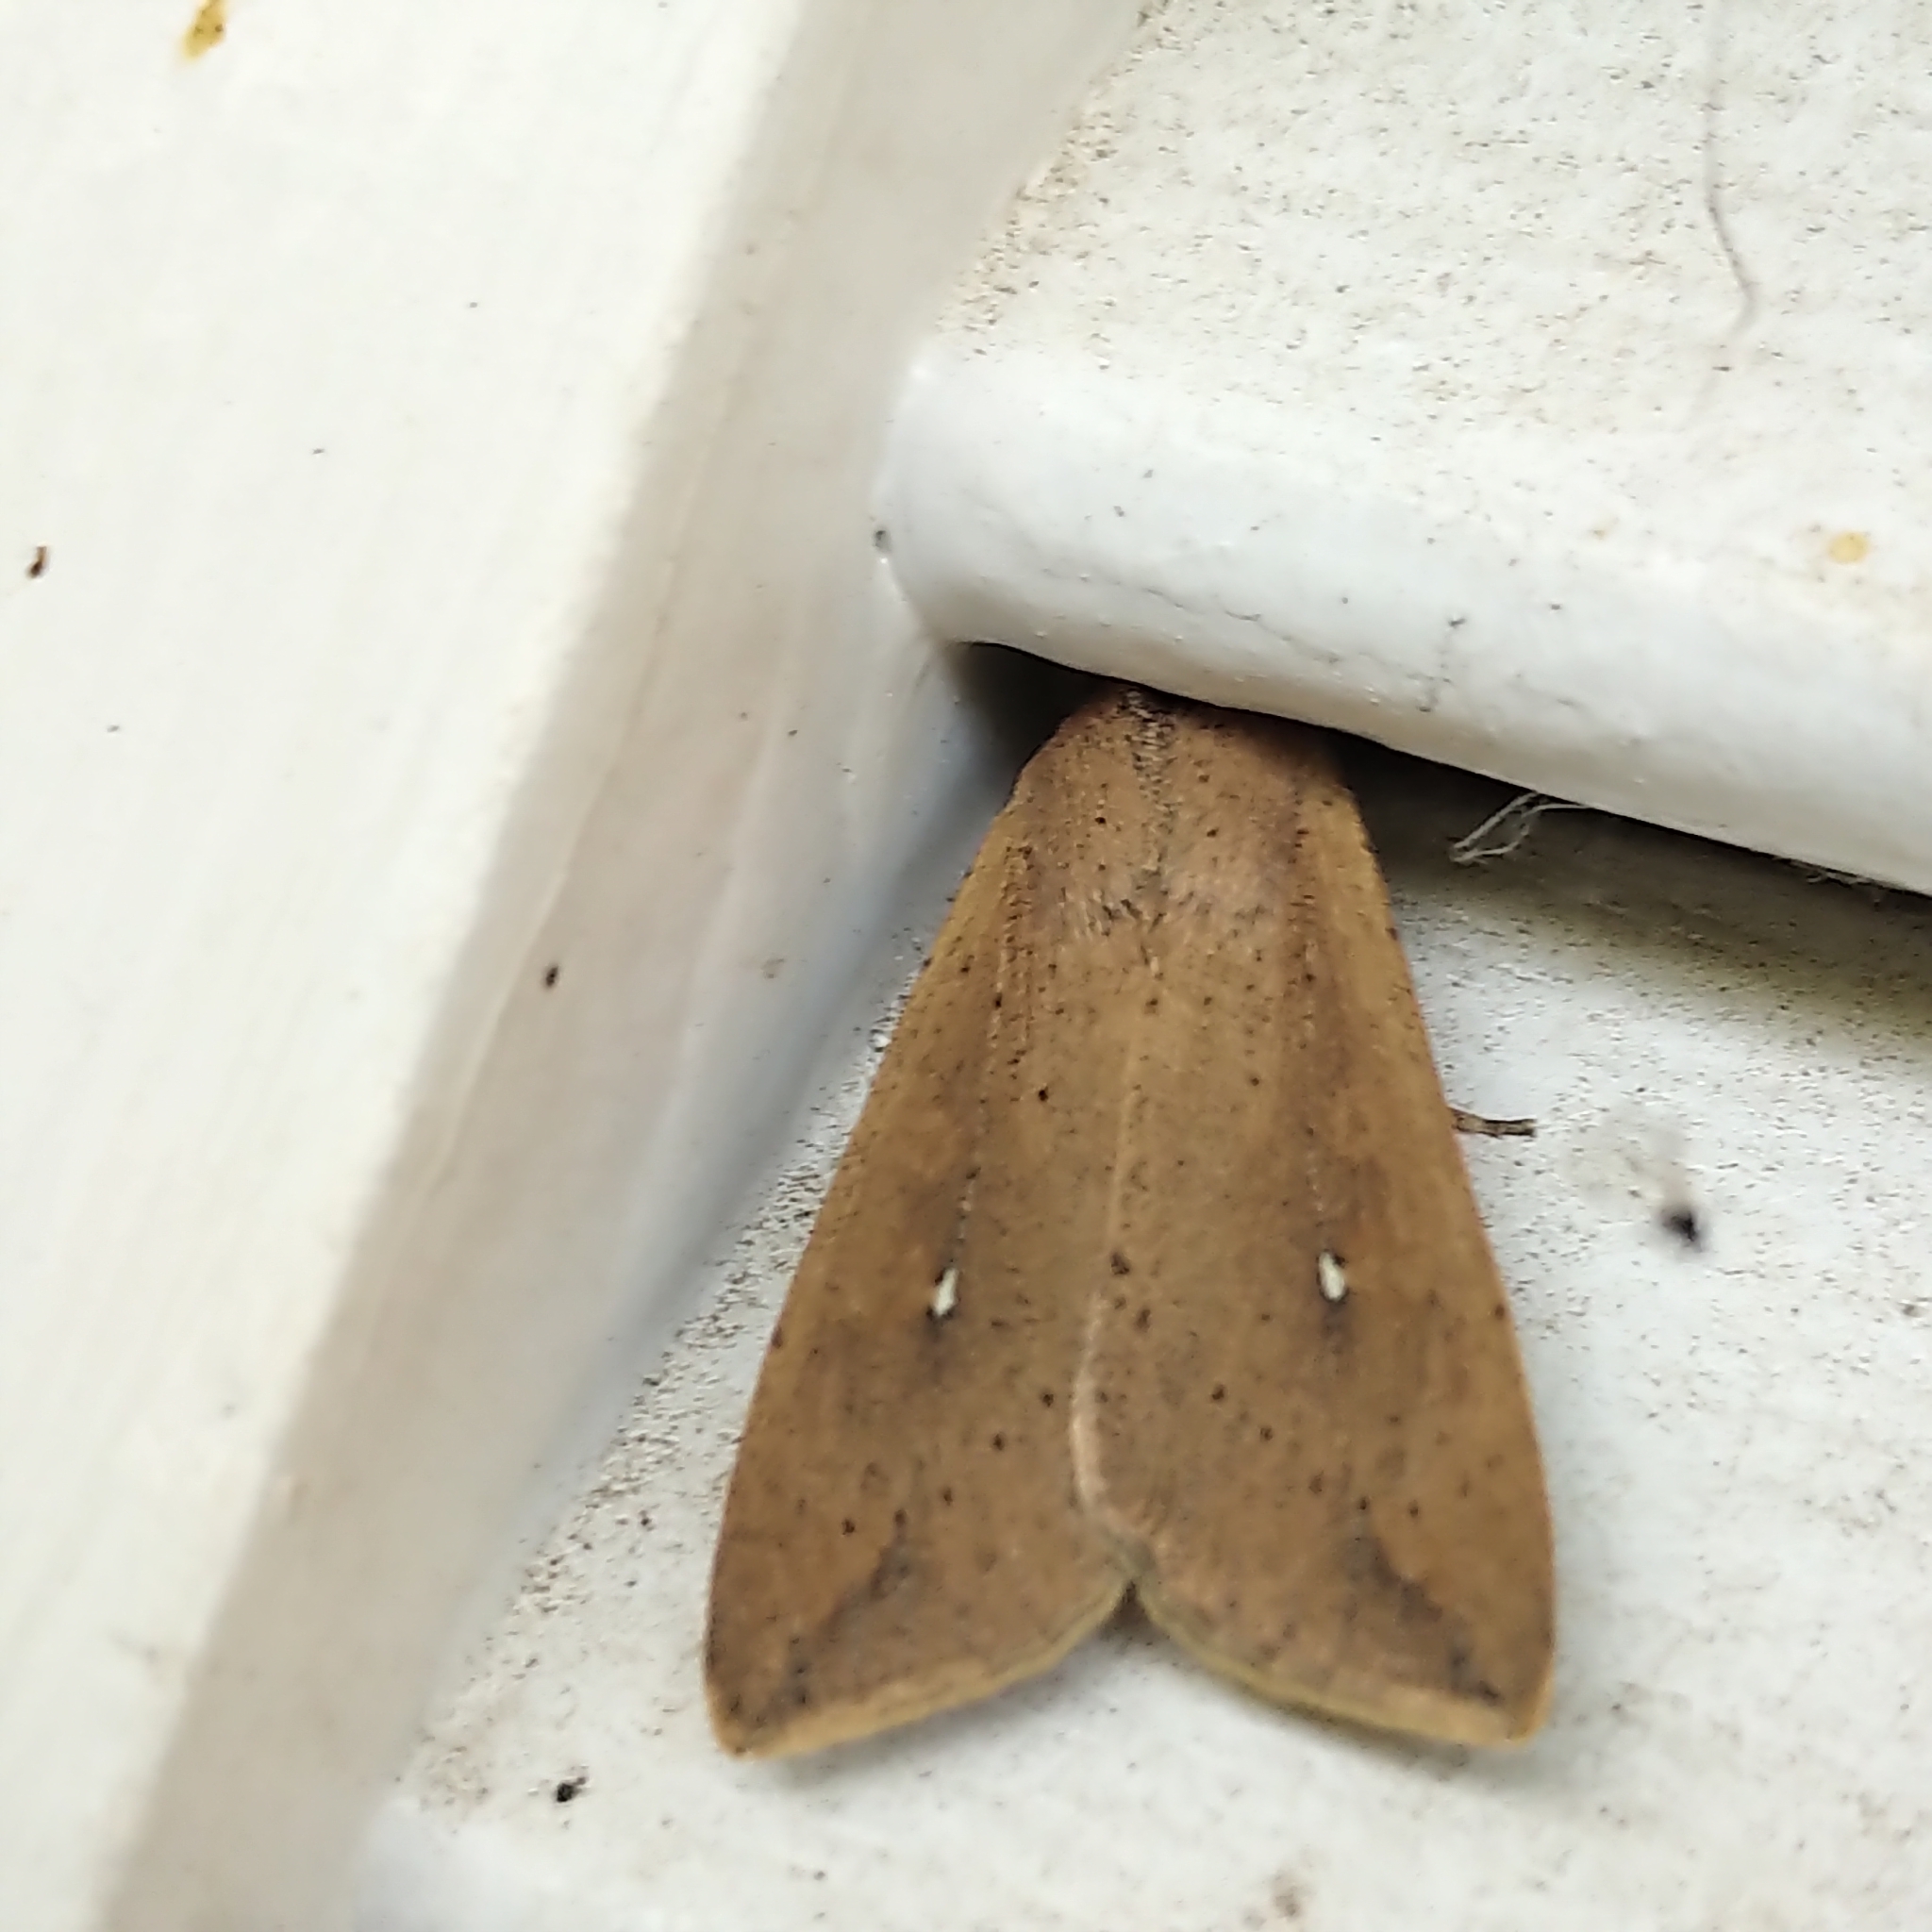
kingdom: Animalia
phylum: Arthropoda
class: Insecta
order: Lepidoptera
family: Noctuidae
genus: Mythimna
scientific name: Mythimna unipuncta
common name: White-speck
